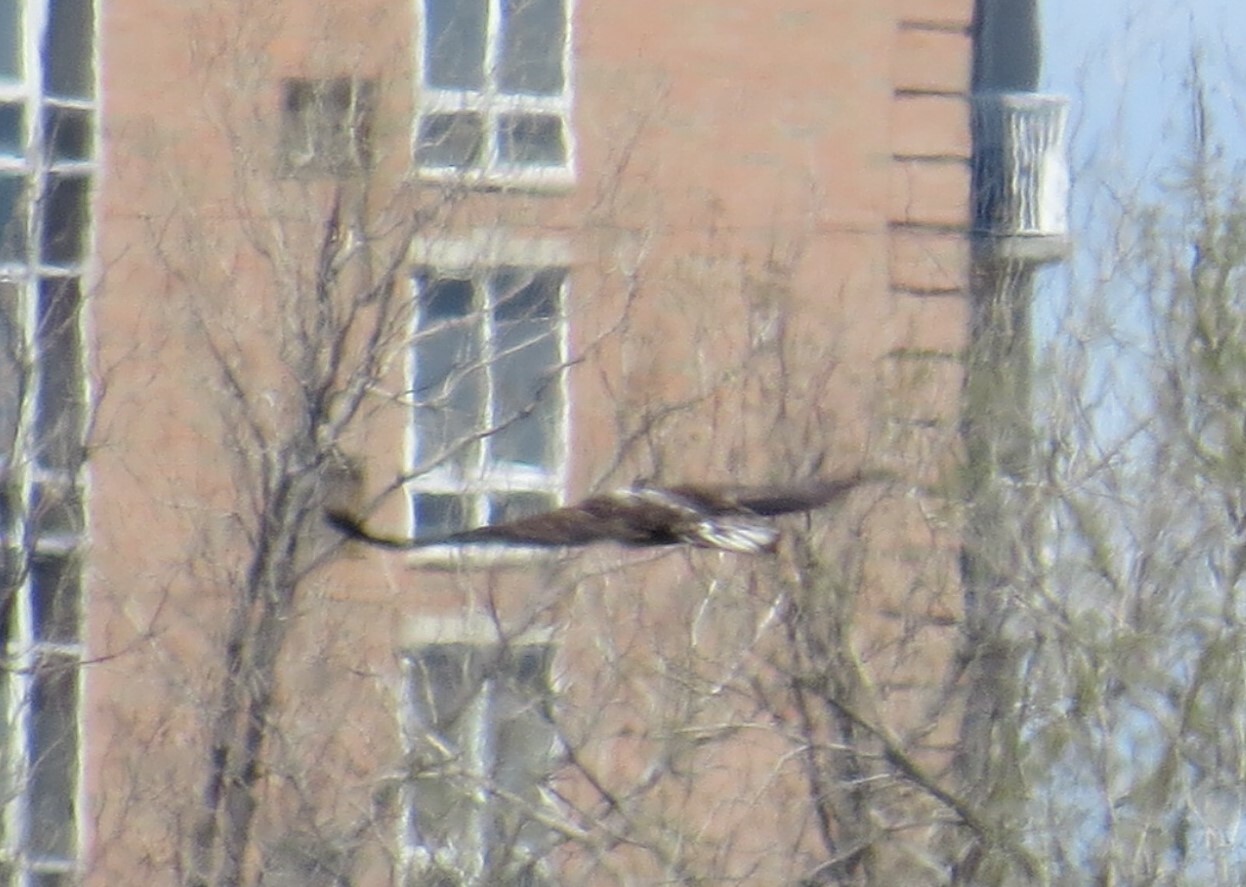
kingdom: Animalia
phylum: Chordata
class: Aves
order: Accipitriformes
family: Accipitridae
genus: Haliaeetus
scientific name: Haliaeetus leucocephalus
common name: Bald eagle
